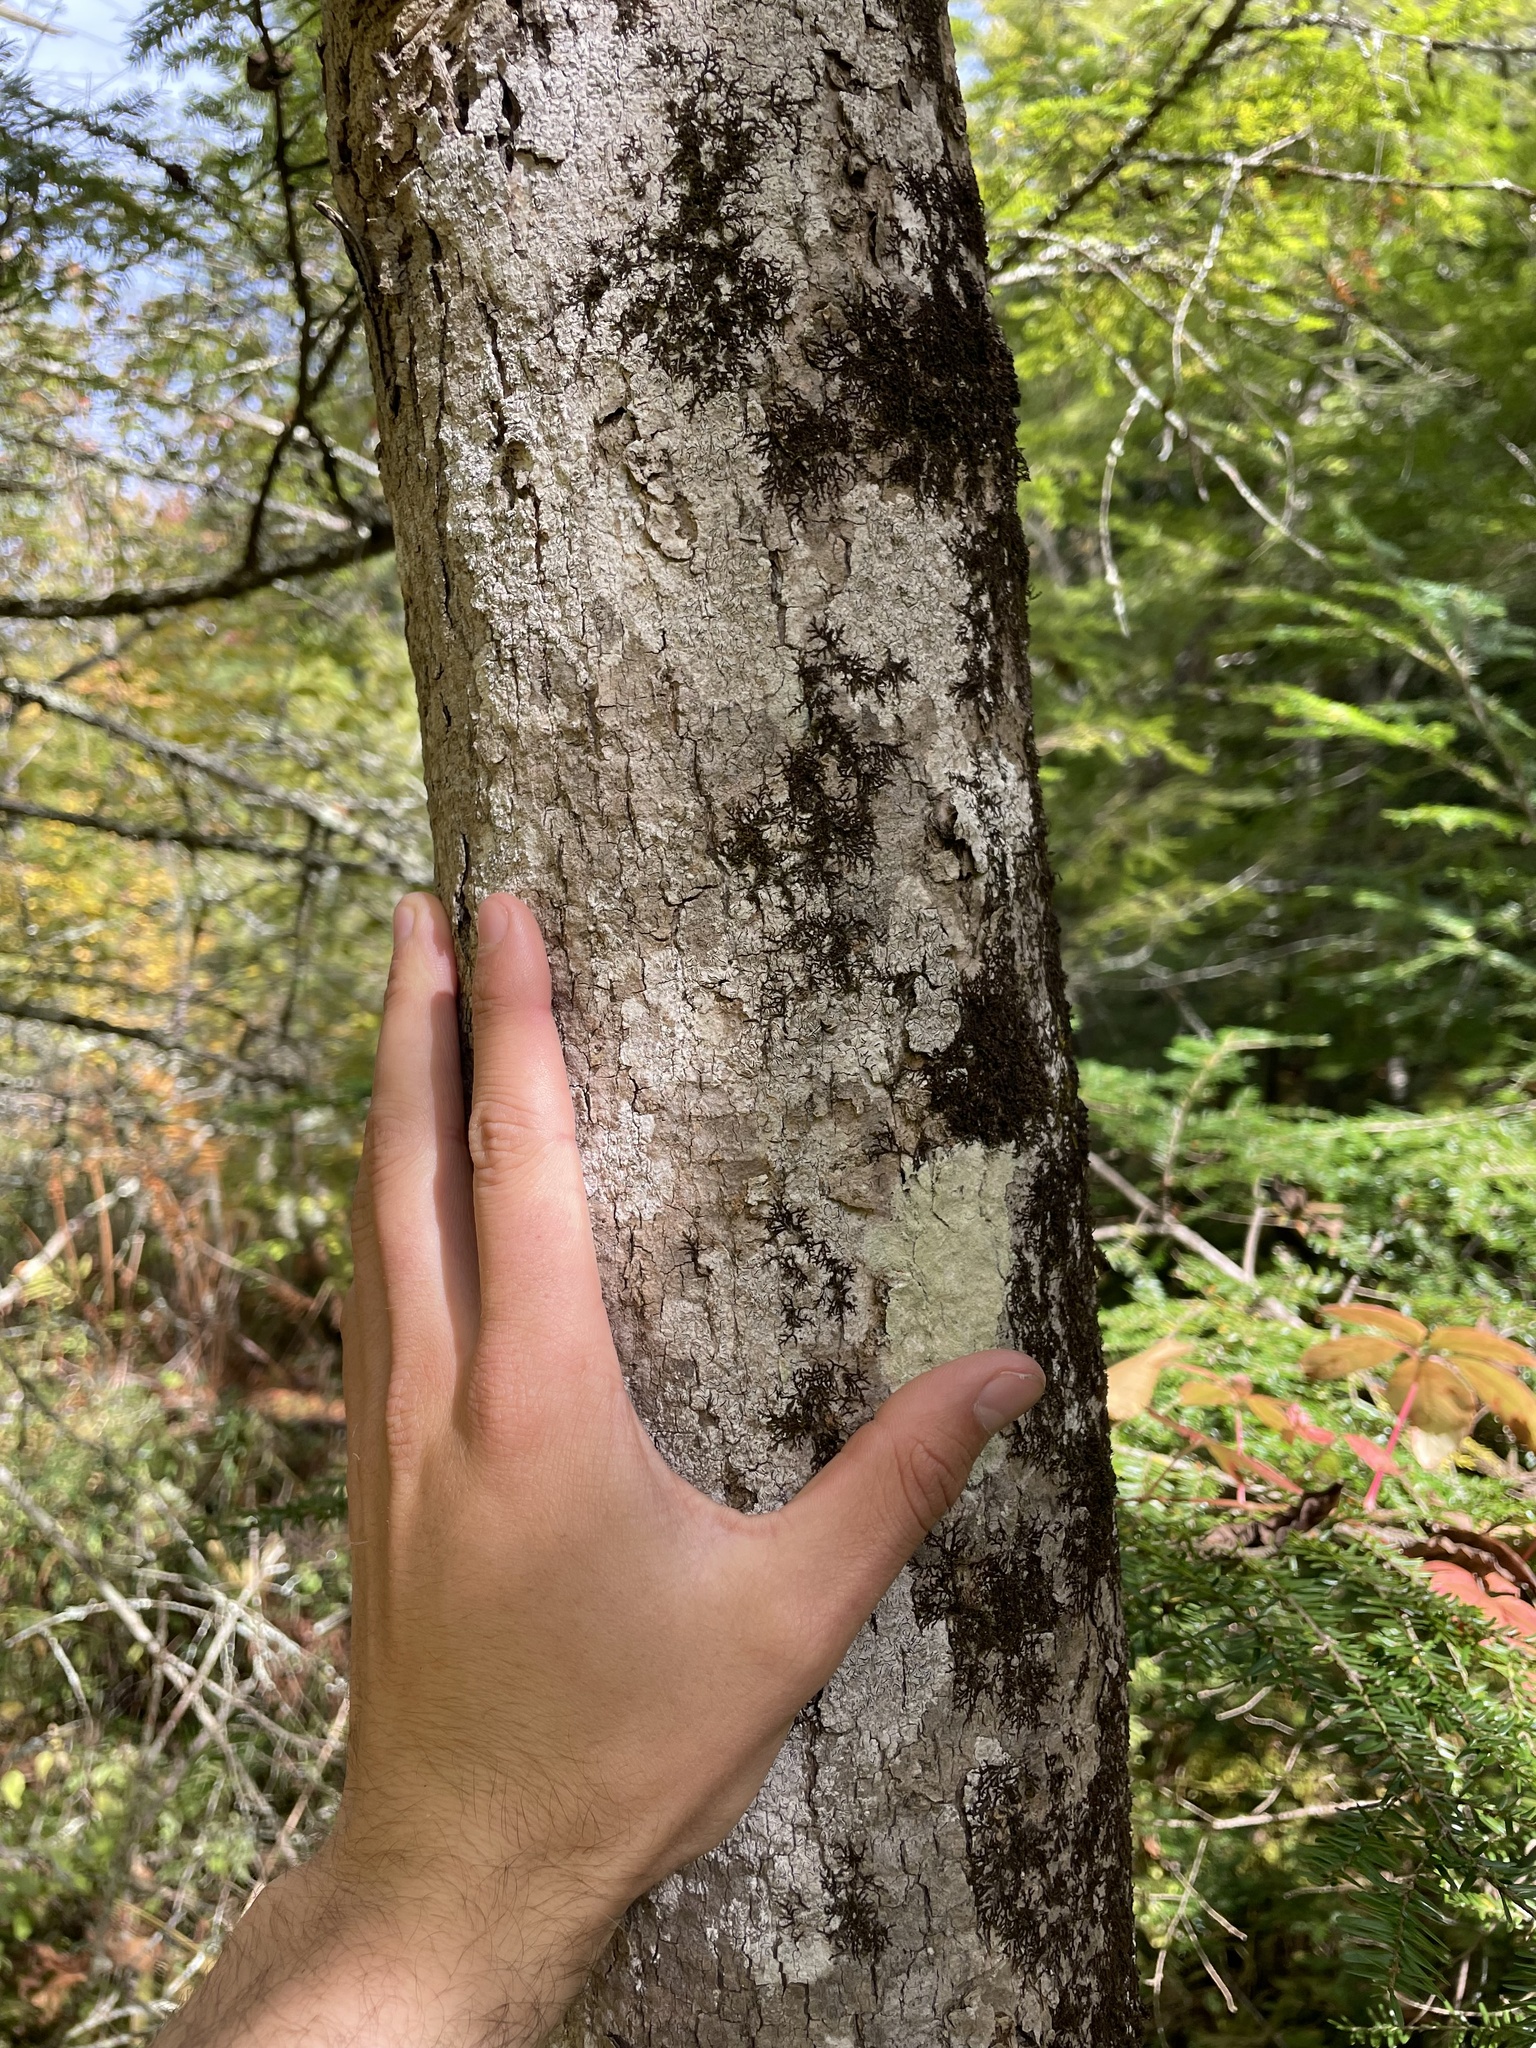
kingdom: Plantae
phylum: Tracheophyta
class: Magnoliopsida
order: Lamiales
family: Oleaceae
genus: Fraxinus
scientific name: Fraxinus nigra
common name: Black ash
